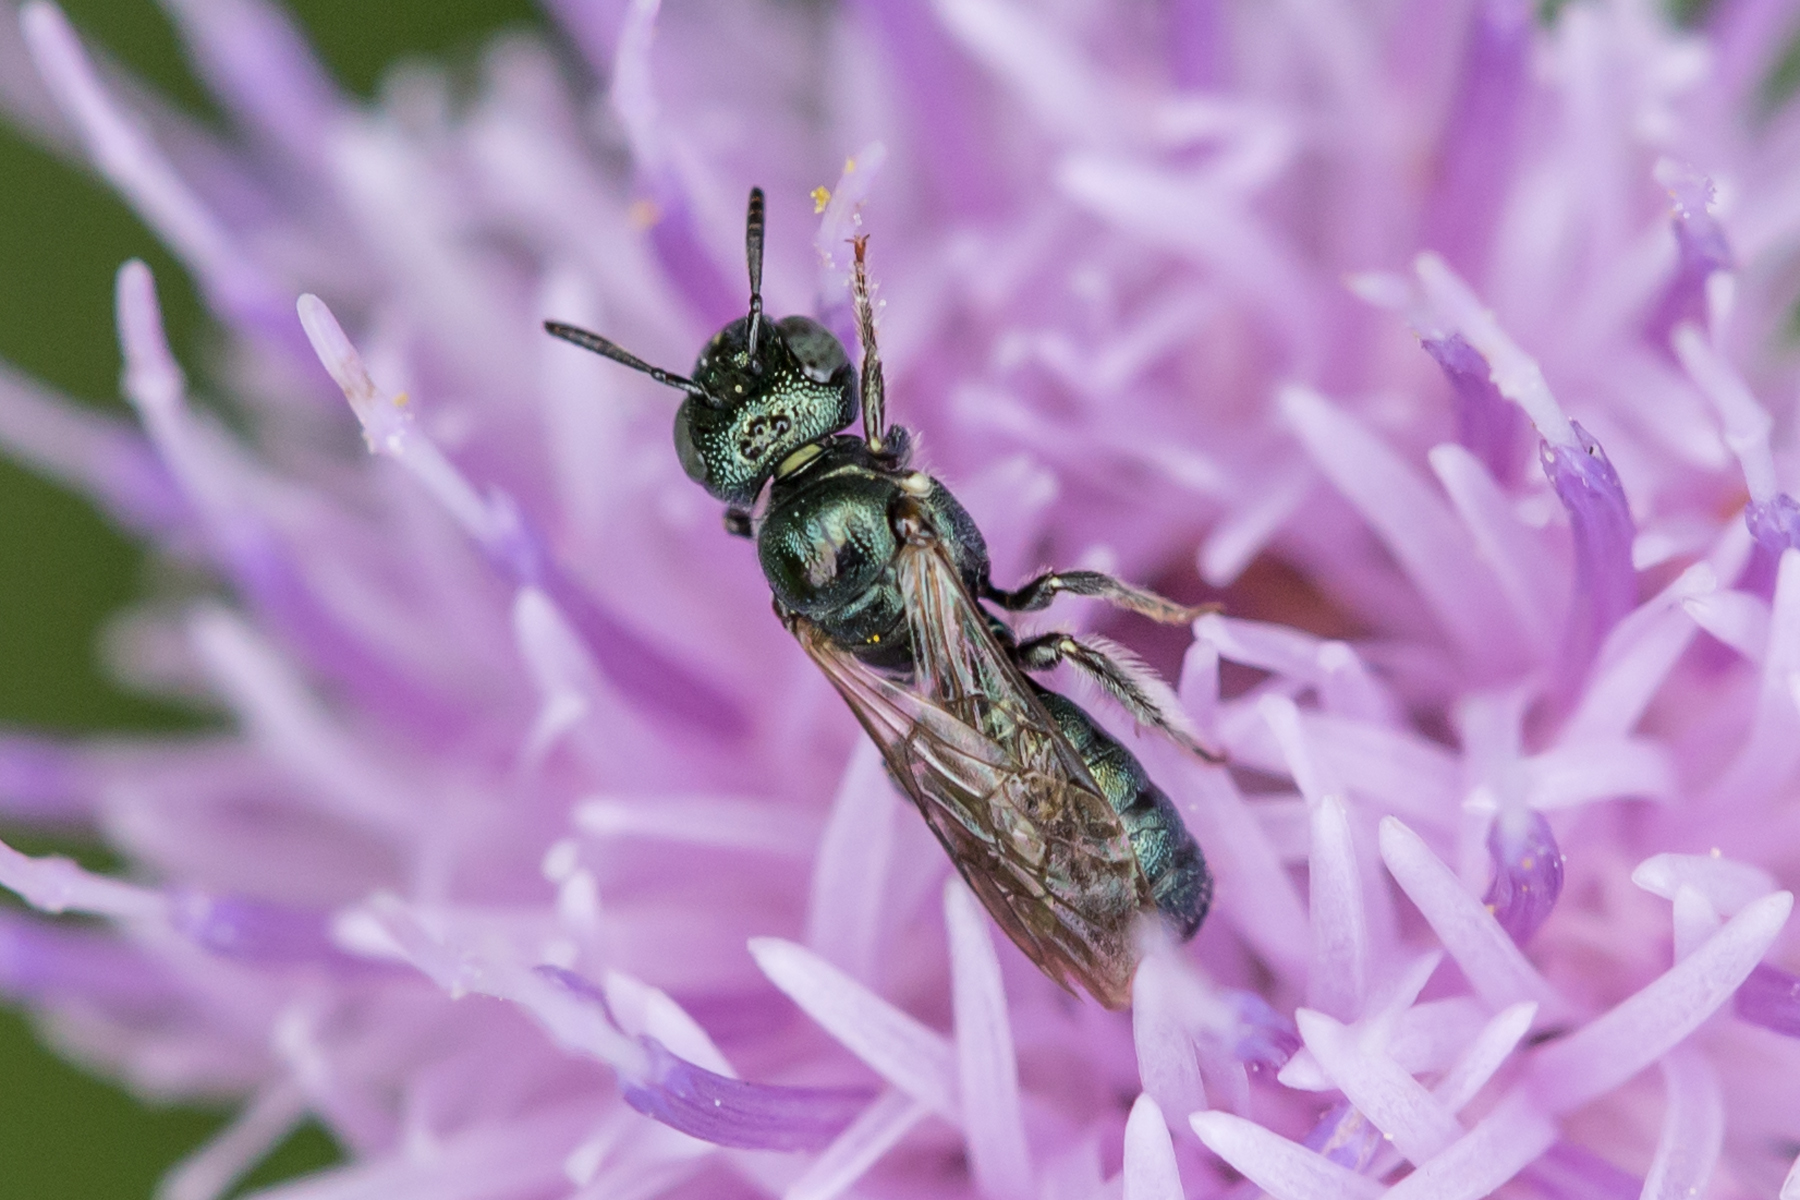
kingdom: Animalia
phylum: Arthropoda
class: Insecta
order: Hymenoptera
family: Apidae
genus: Zadontomerus
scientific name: Zadontomerus
